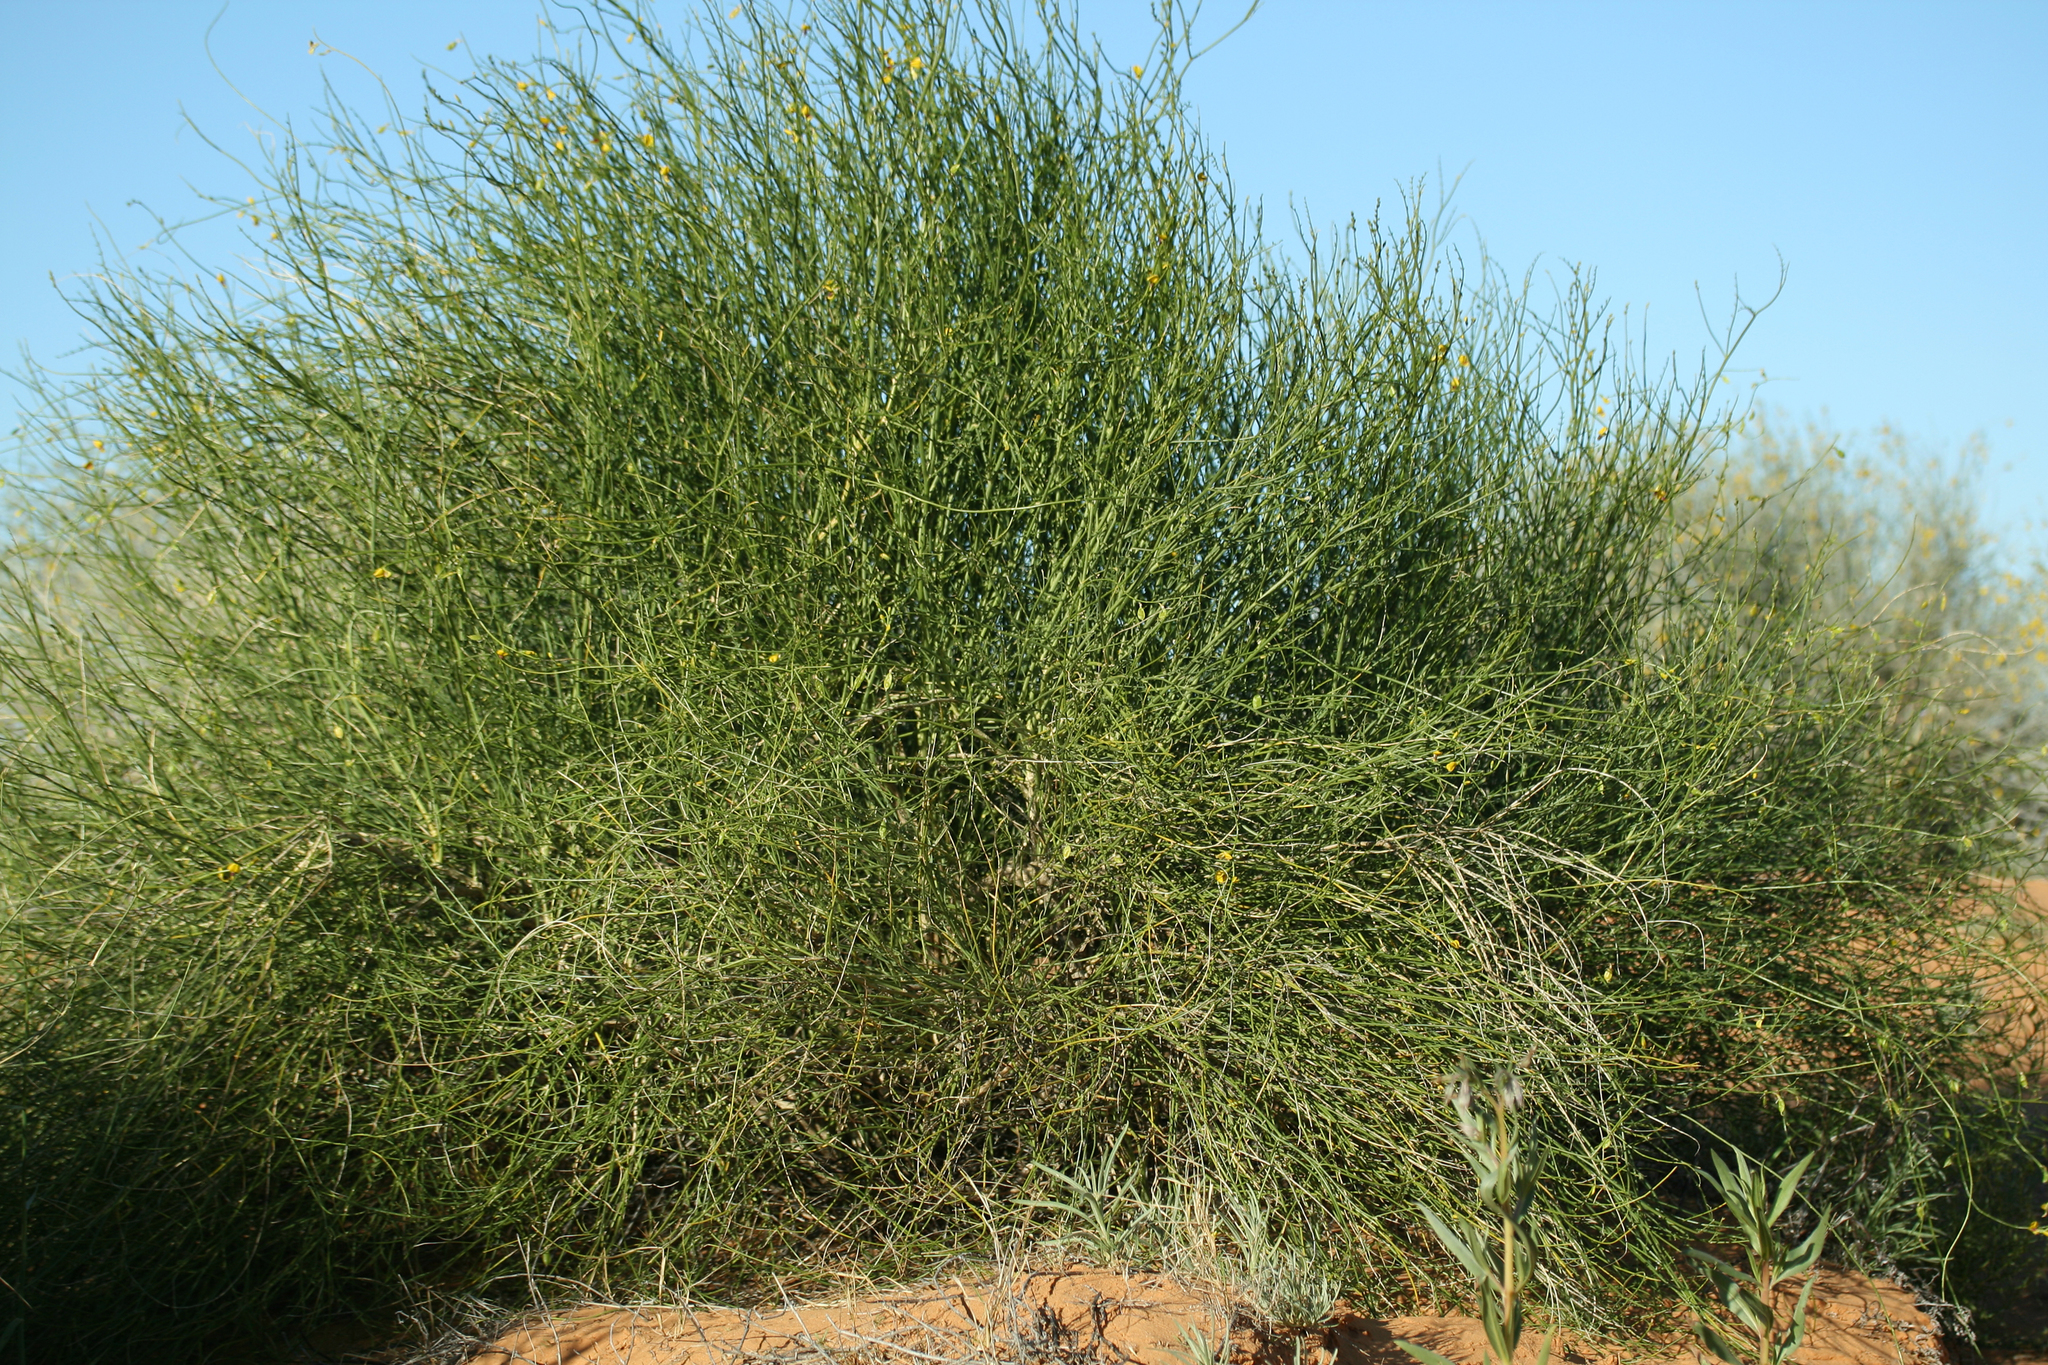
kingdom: Plantae
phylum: Tracheophyta
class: Magnoliopsida
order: Fabales
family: Fabaceae
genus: Swainsona
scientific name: Swainsona laxa
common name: Yellow darling pea
